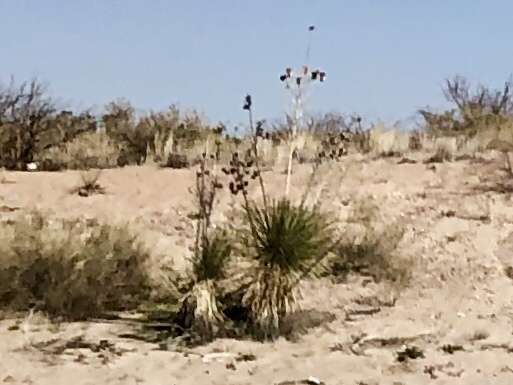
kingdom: Plantae
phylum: Tracheophyta
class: Liliopsida
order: Asparagales
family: Asparagaceae
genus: Yucca
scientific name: Yucca elata
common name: Palmella
